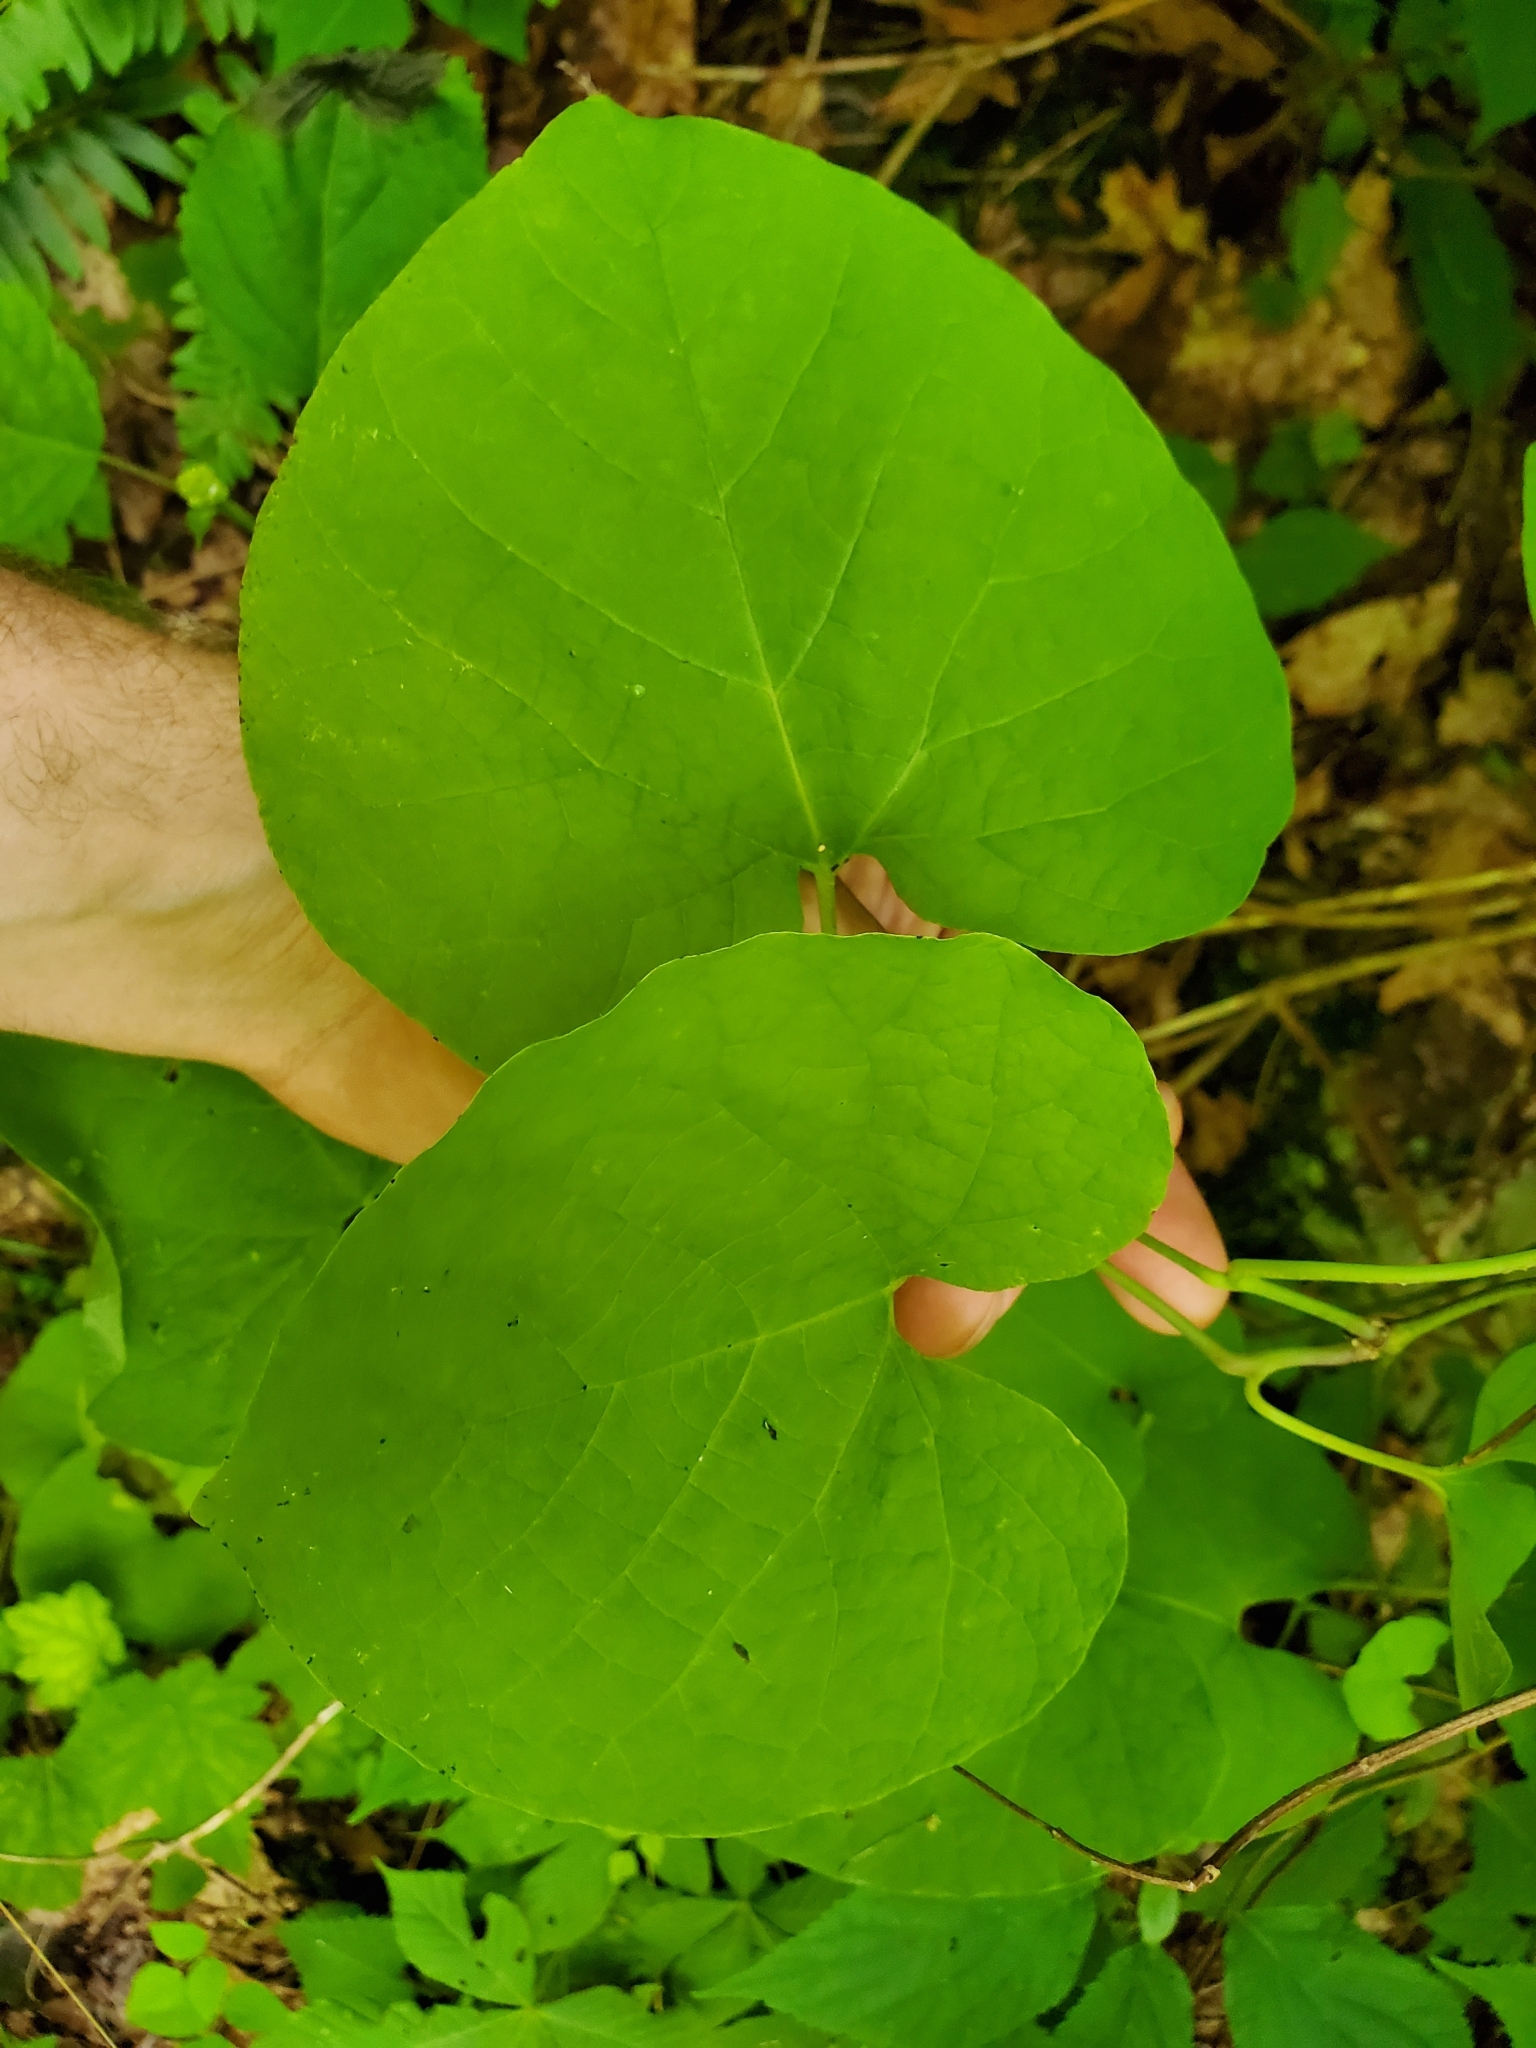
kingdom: Plantae
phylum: Tracheophyta
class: Magnoliopsida
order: Piperales
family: Aristolochiaceae
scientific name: Aristolochiaceae
